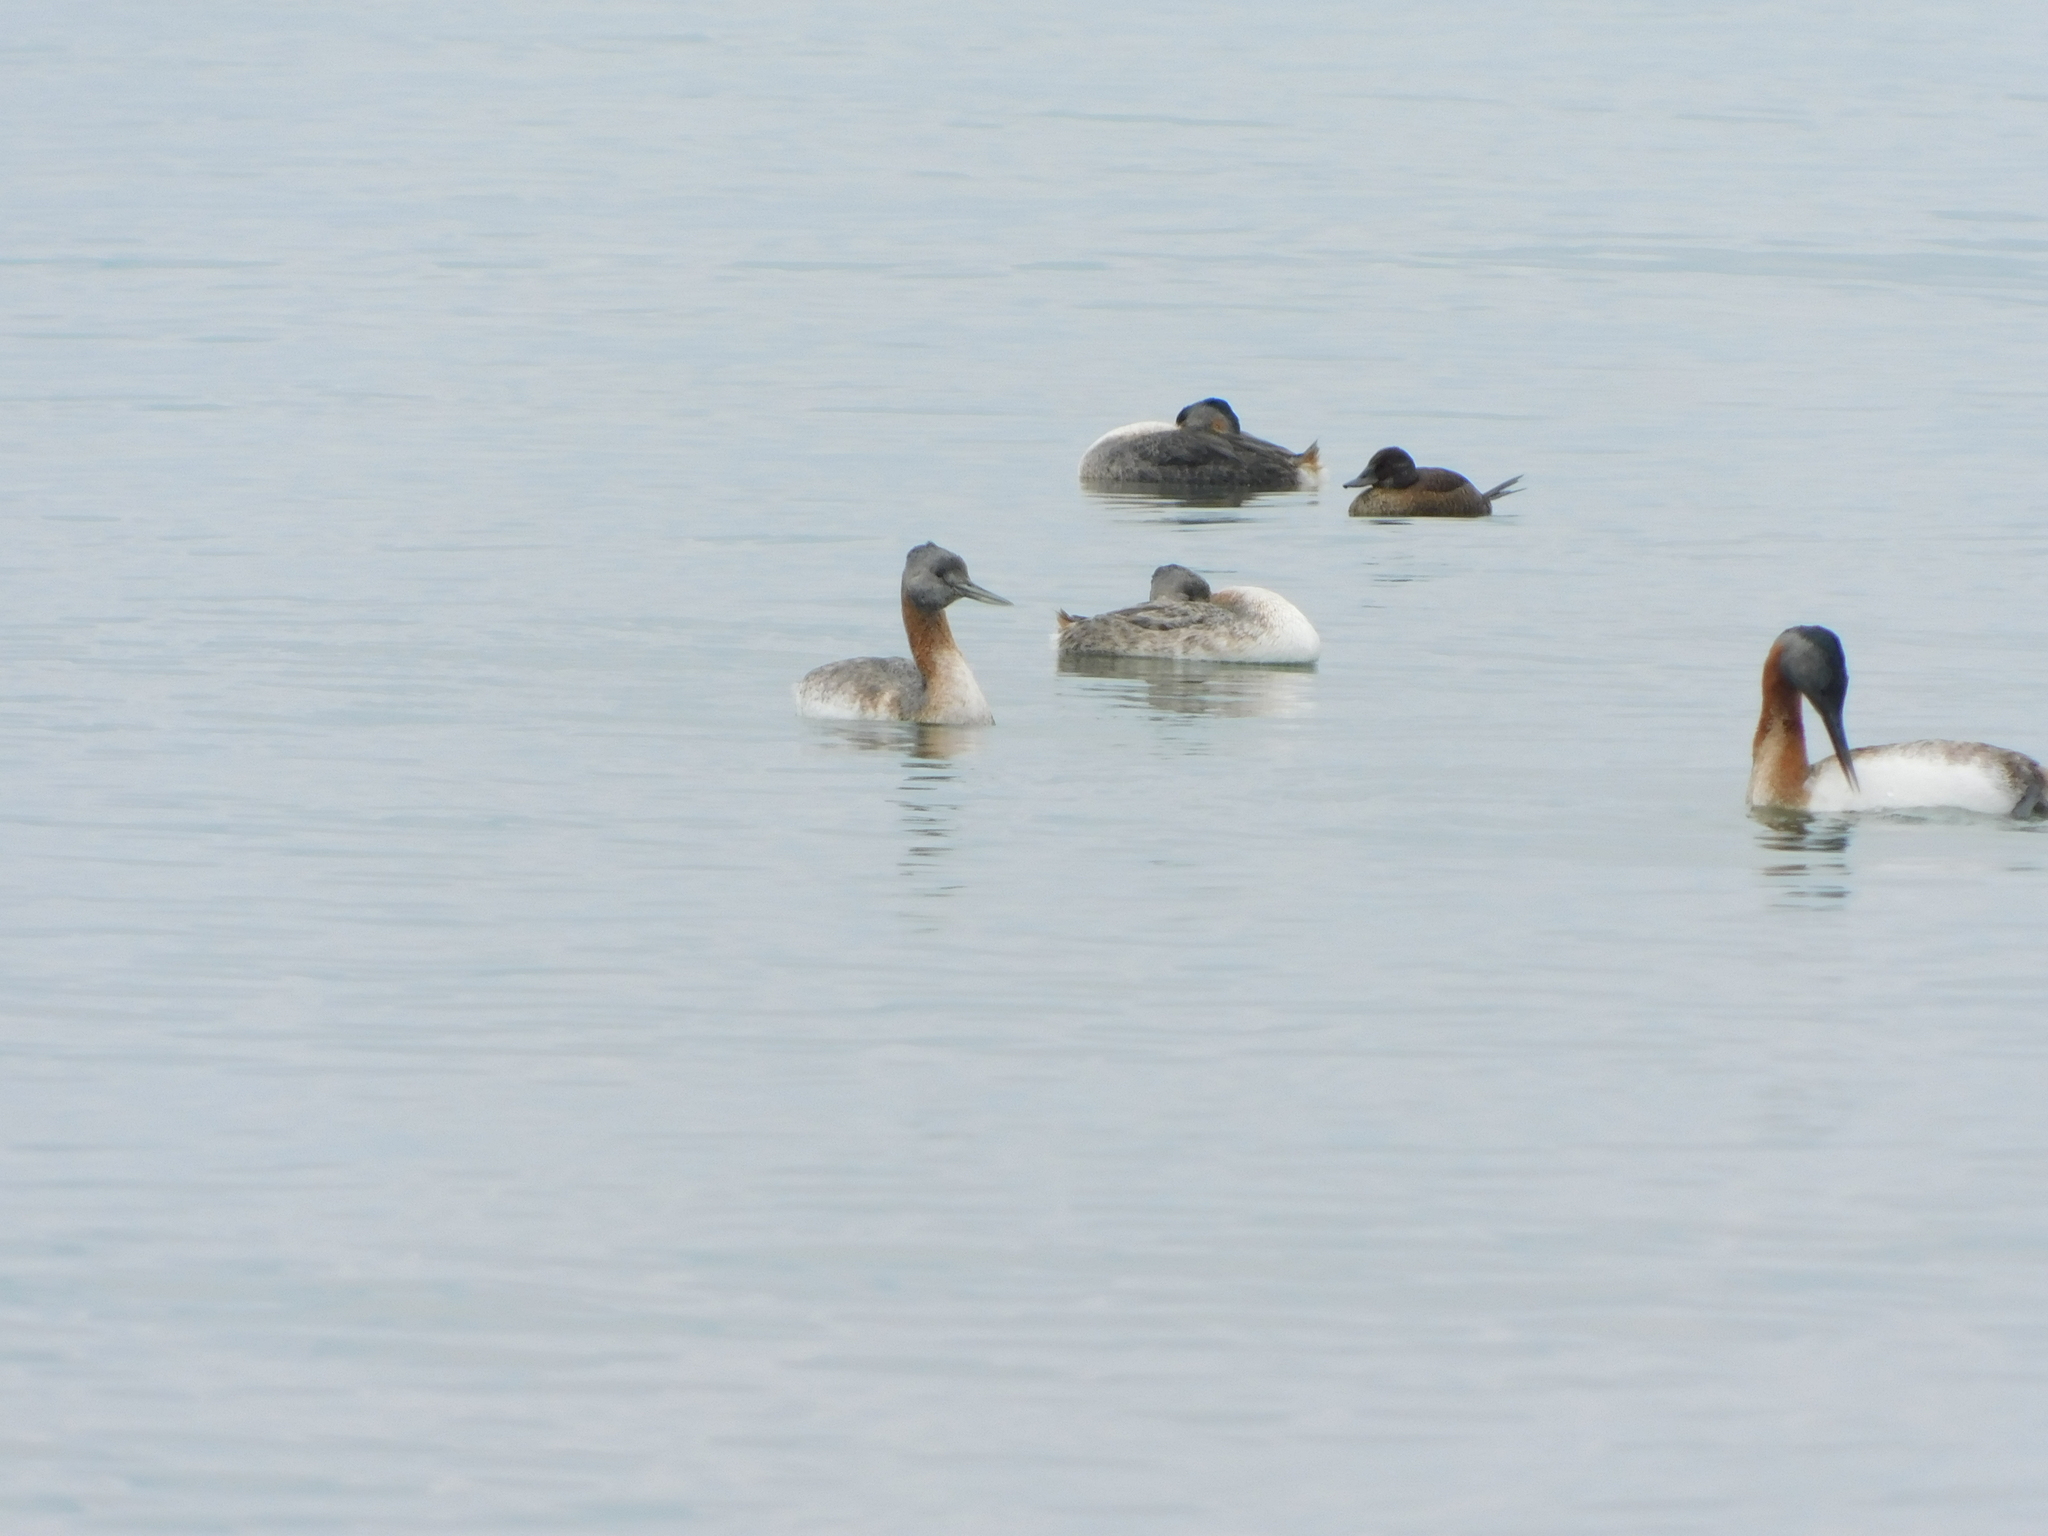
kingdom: Animalia
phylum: Chordata
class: Aves
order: Podicipediformes
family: Podicipedidae
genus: Podiceps
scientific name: Podiceps major
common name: Great grebe
